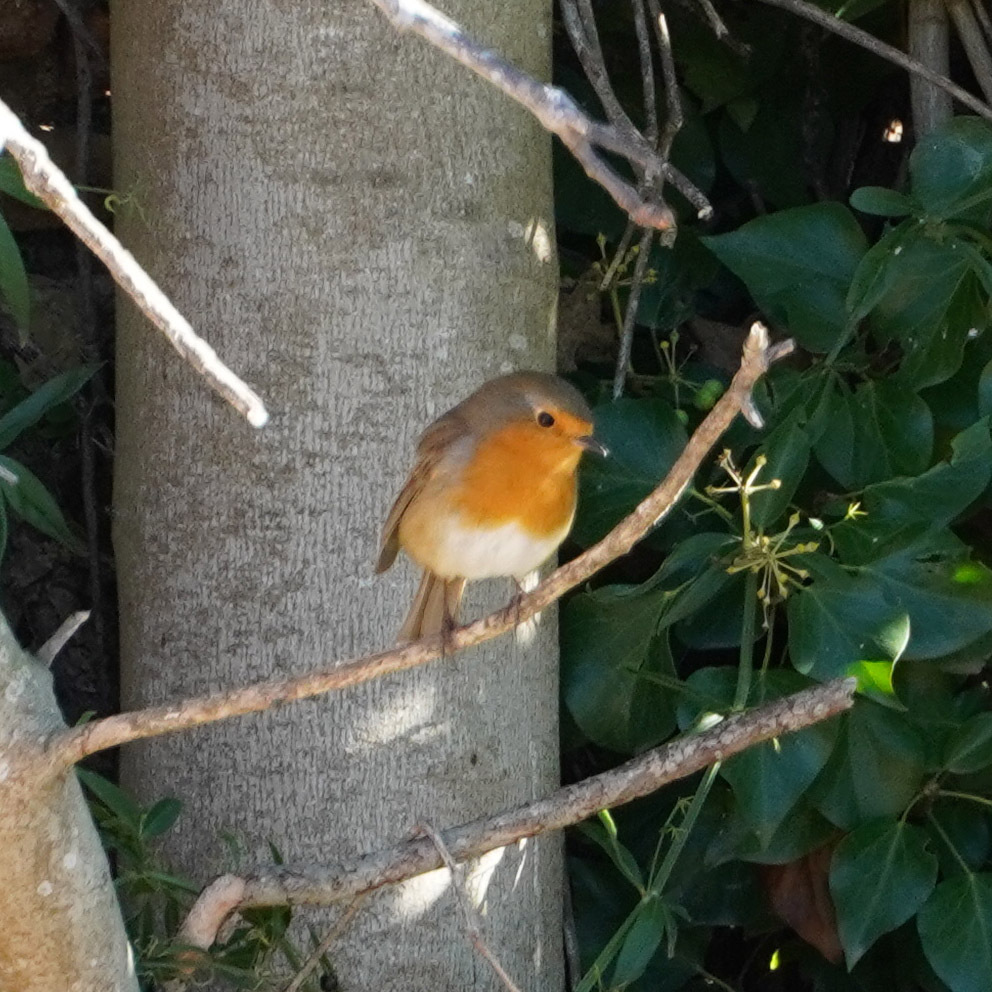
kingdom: Animalia
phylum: Chordata
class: Aves
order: Passeriformes
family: Muscicapidae
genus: Erithacus
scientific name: Erithacus rubecula
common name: European robin
